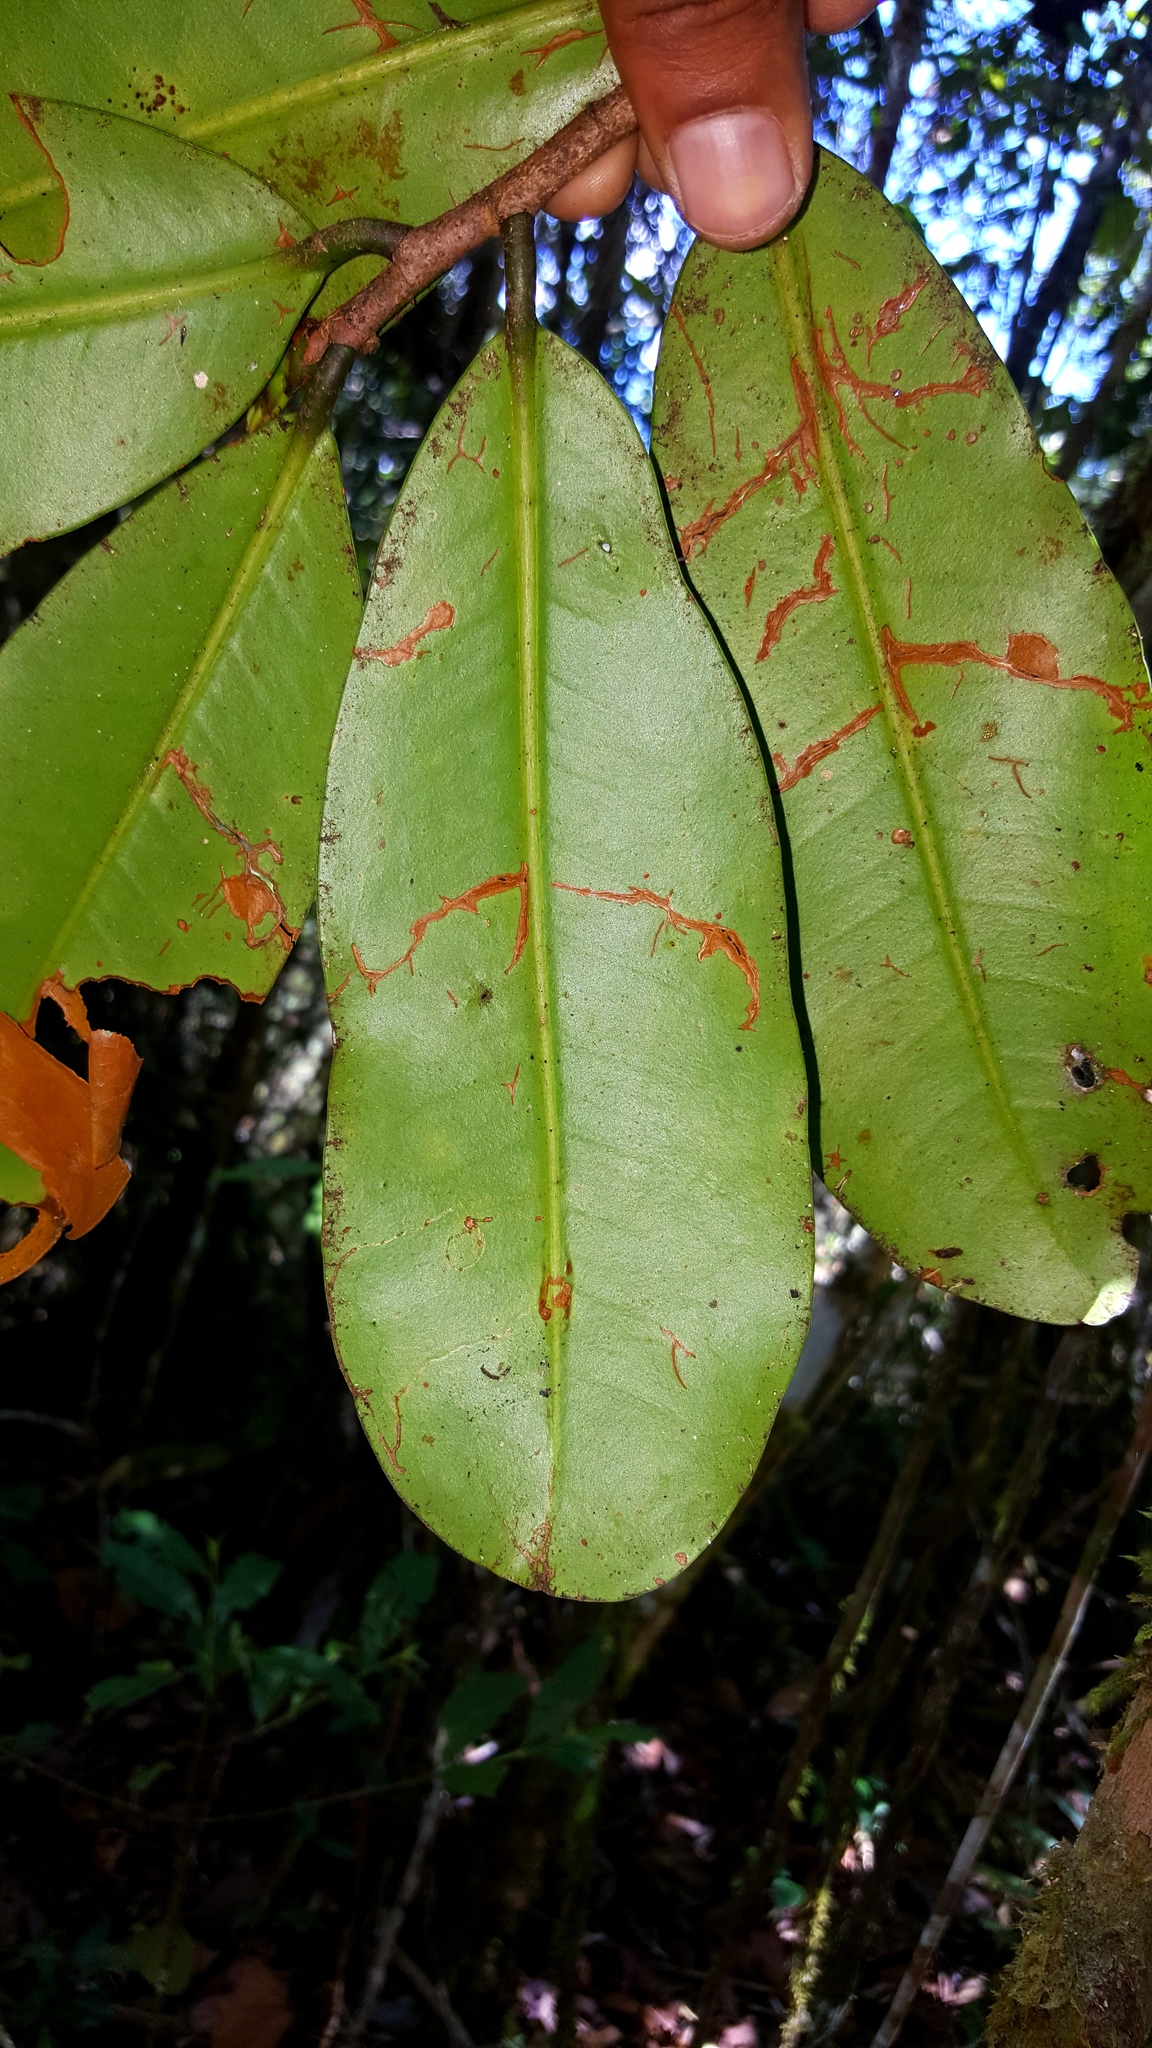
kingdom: Plantae
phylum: Tracheophyta
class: Magnoliopsida
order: Malpighiales
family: Erythroxylaceae
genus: Erythroxylum
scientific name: Erythroxylum sphaeranthum
